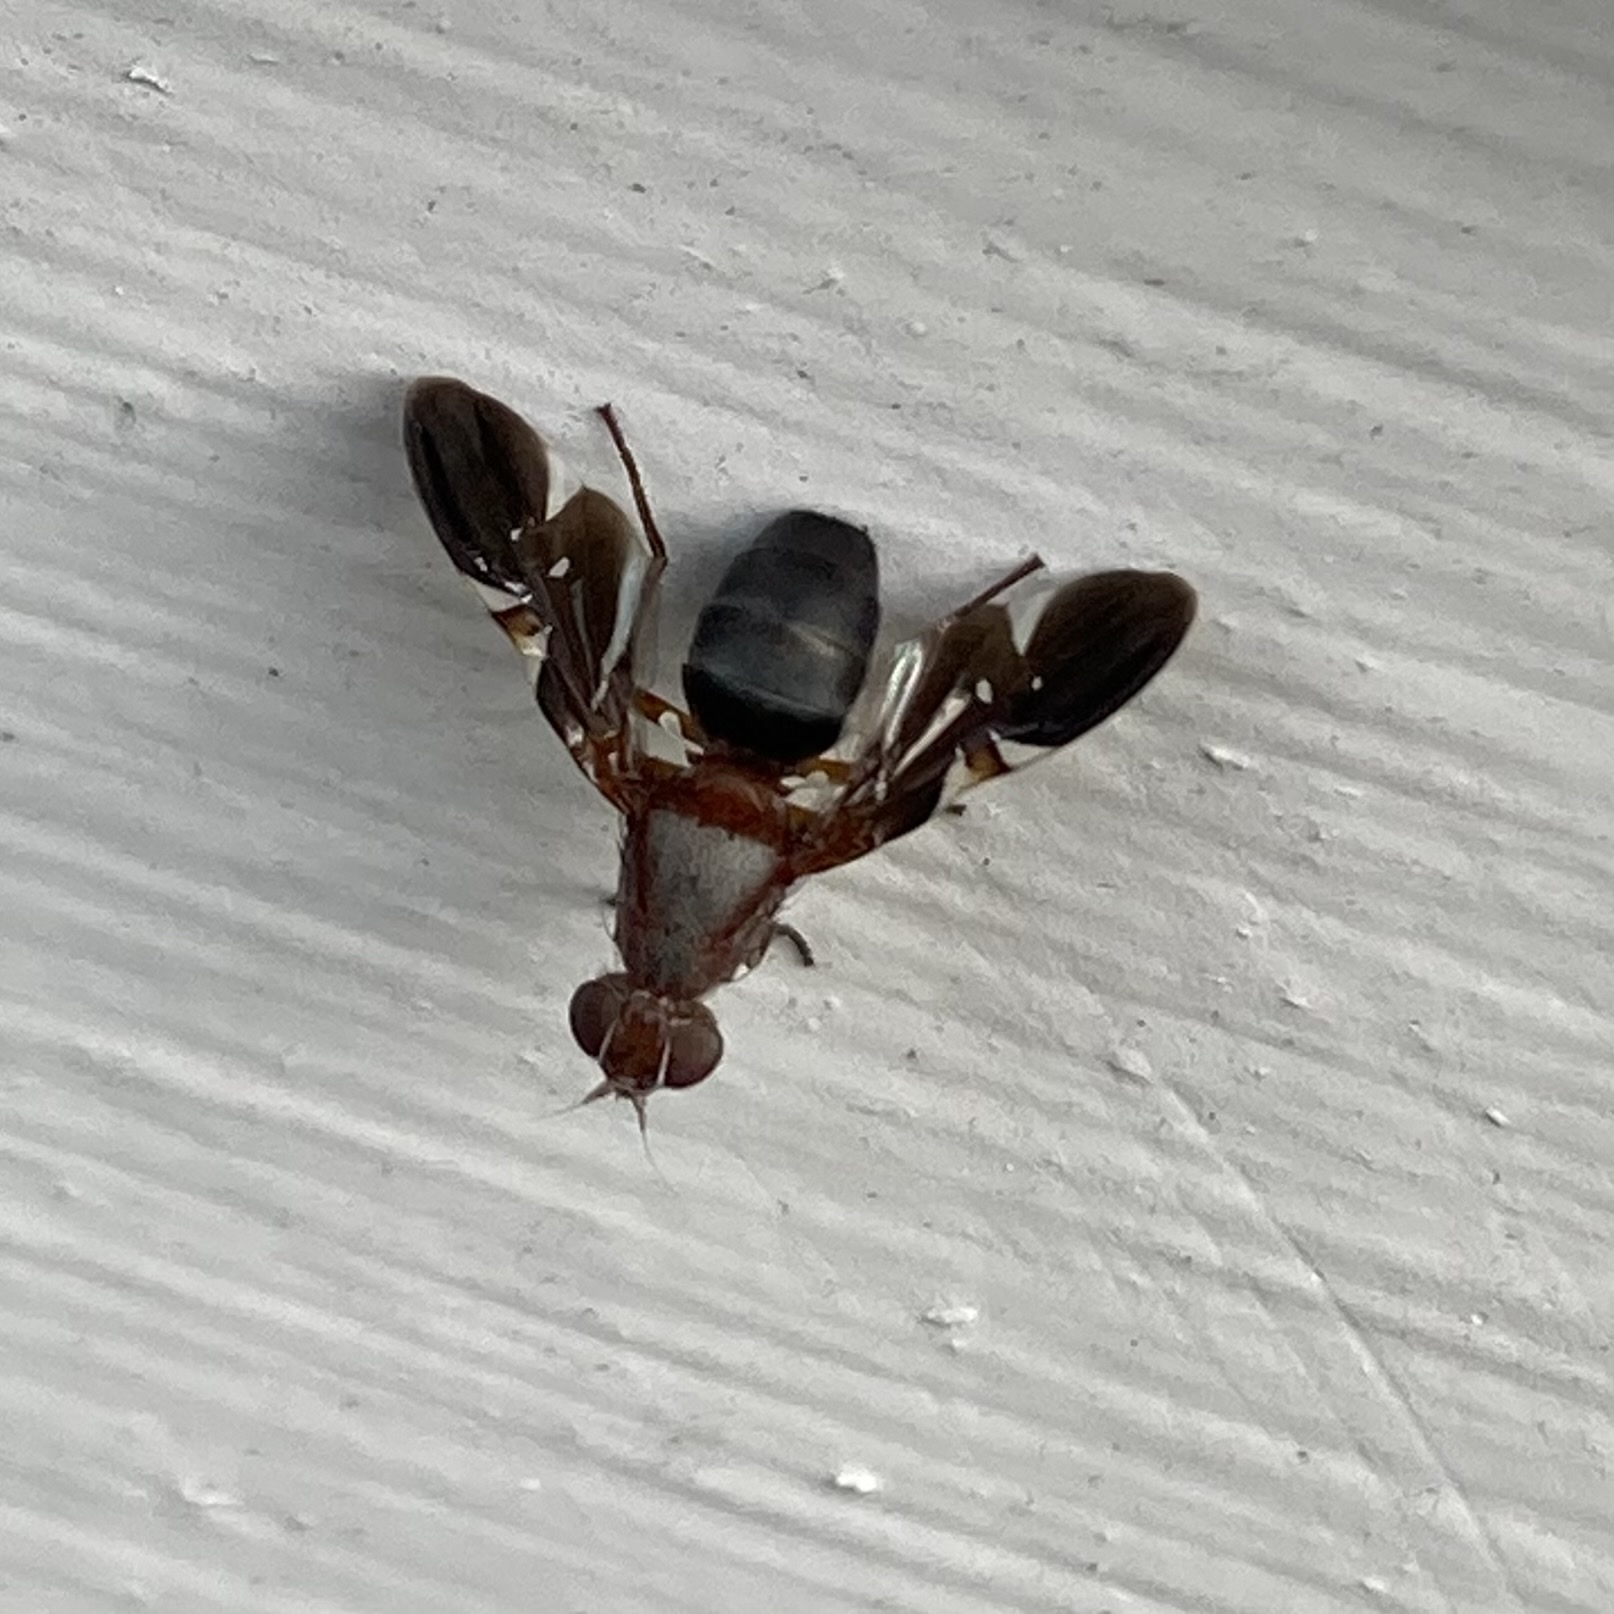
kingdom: Animalia
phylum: Arthropoda
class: Insecta
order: Diptera
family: Ulidiidae
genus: Delphinia
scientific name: Delphinia picta
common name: Common picture-winged fly
